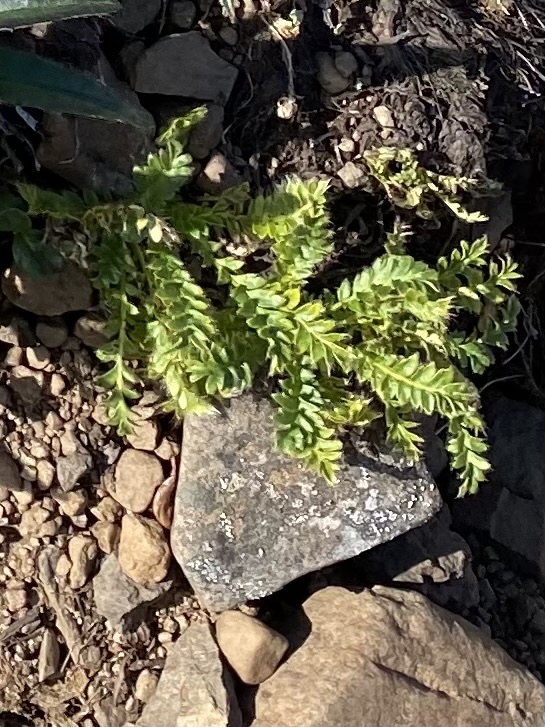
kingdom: Plantae
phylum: Tracheophyta
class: Magnoliopsida
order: Rosales
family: Rosaceae
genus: Geum
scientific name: Geum glaciale
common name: Glacier avens
